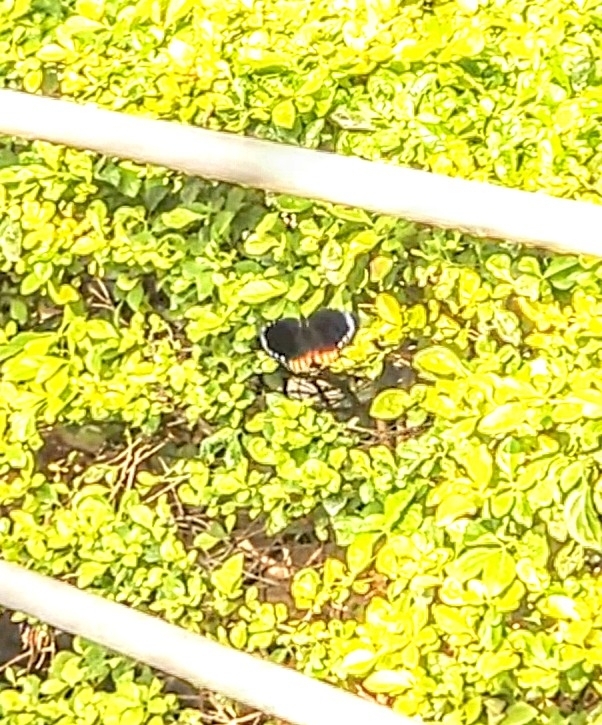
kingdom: Animalia
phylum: Arthropoda
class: Insecta
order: Lepidoptera
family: Nymphalidae
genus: Elymnias
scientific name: Elymnias hypermnestra
